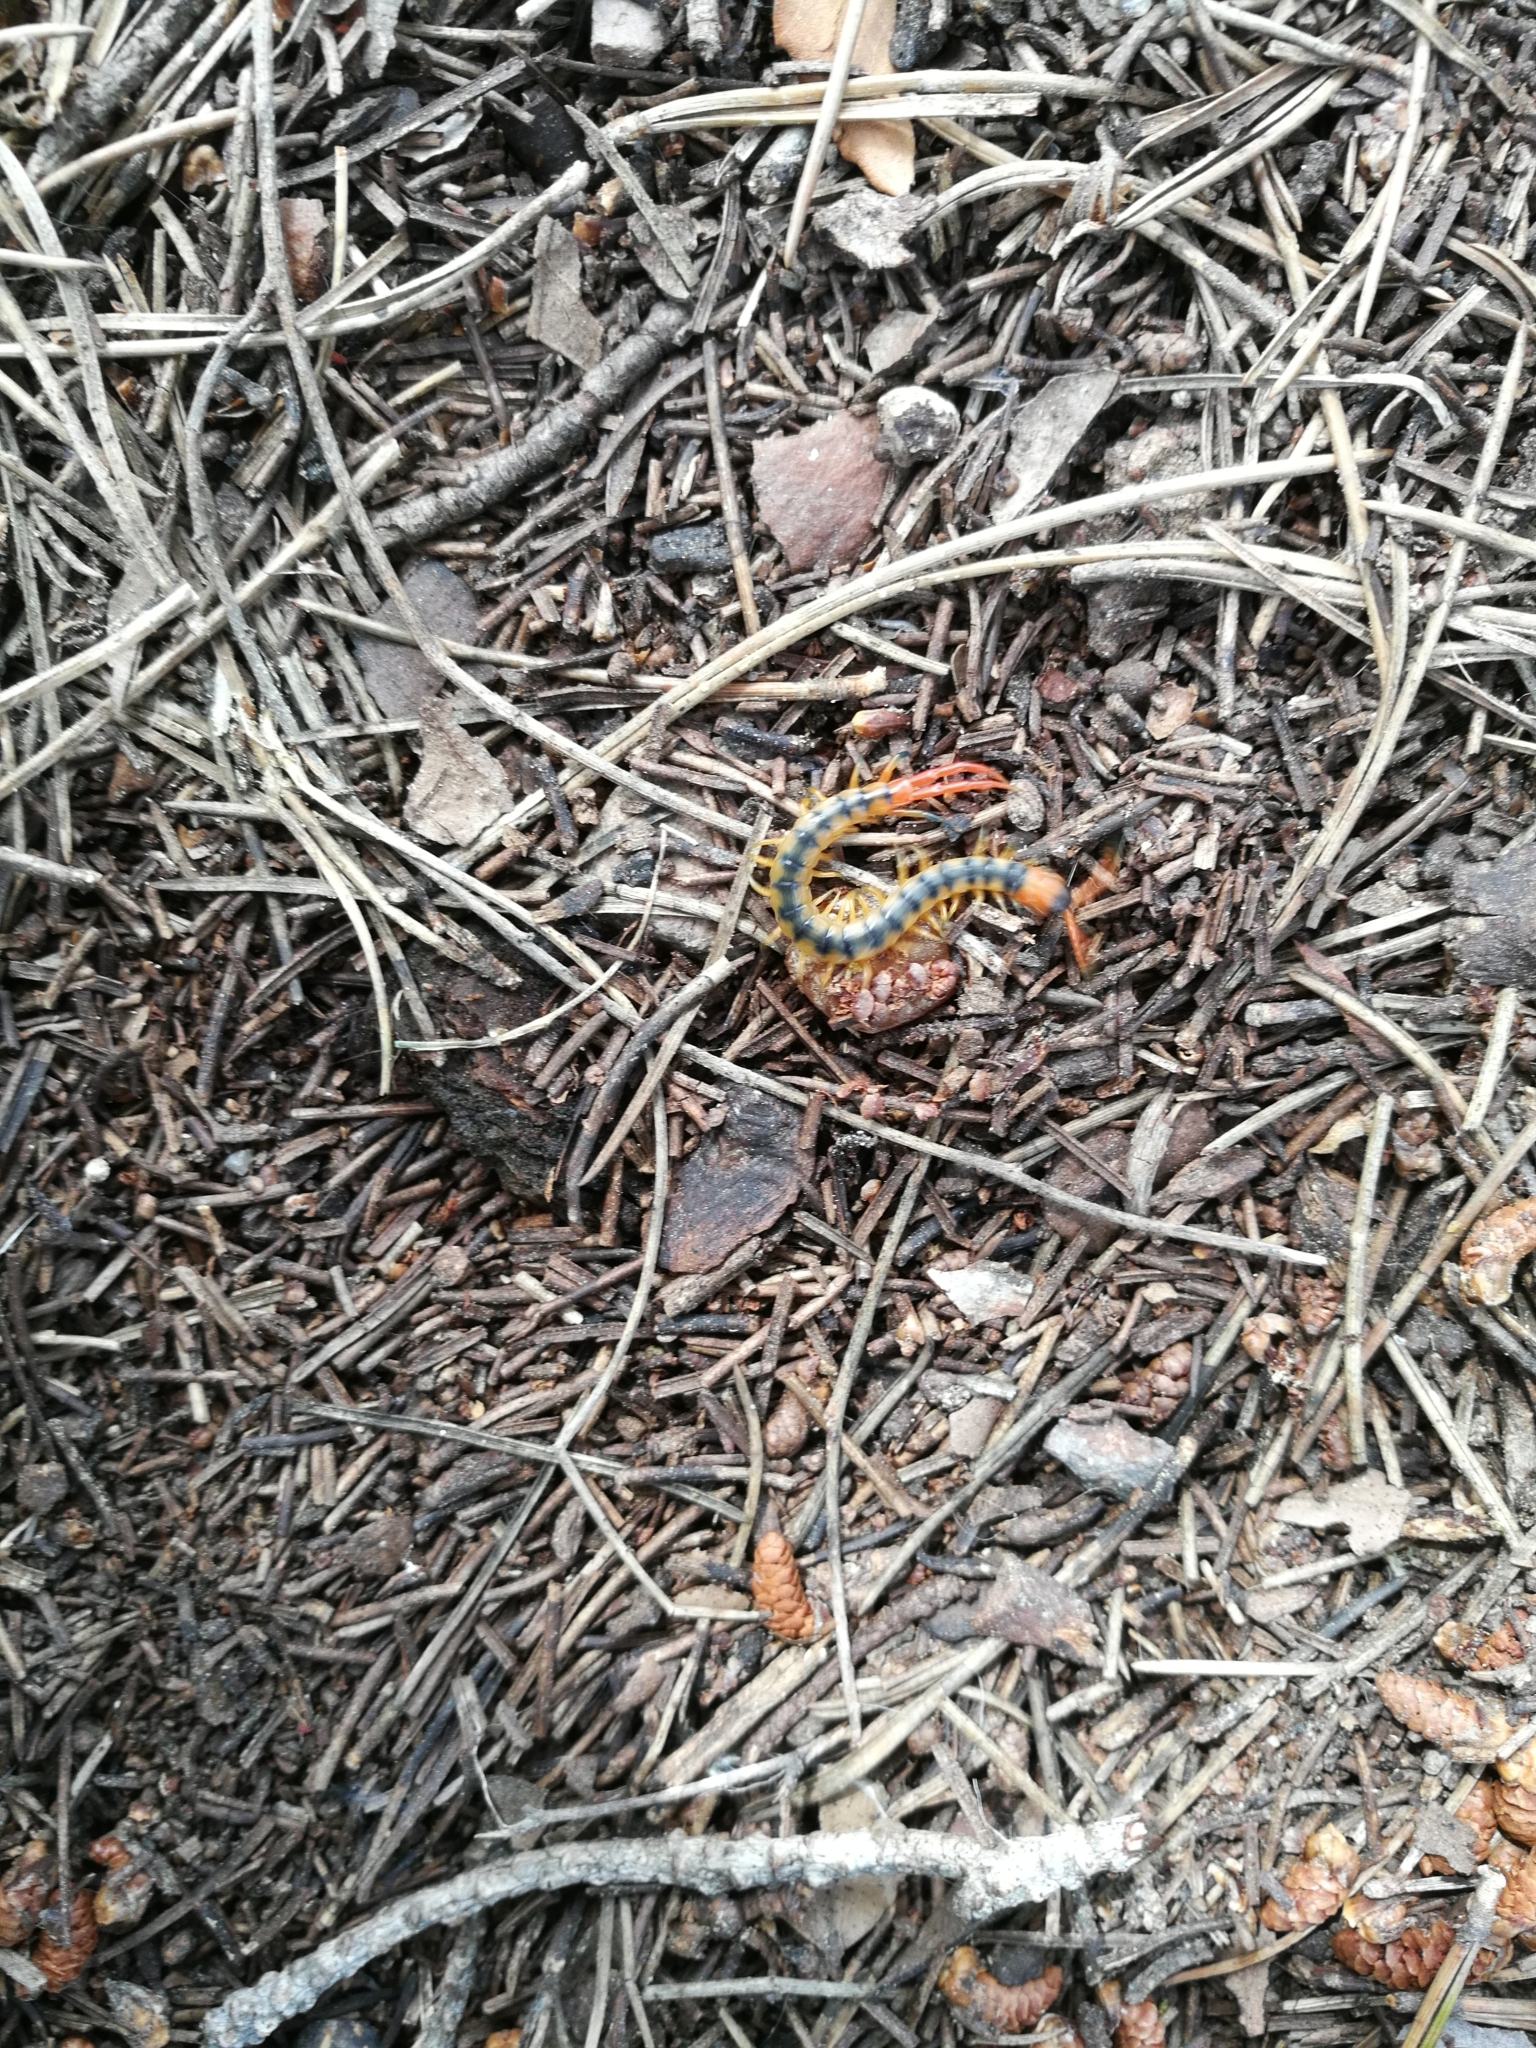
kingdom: Animalia
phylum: Arthropoda
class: Chilopoda
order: Scolopendromorpha
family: Scolopendridae
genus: Scolopendra
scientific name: Scolopendra cingulata
